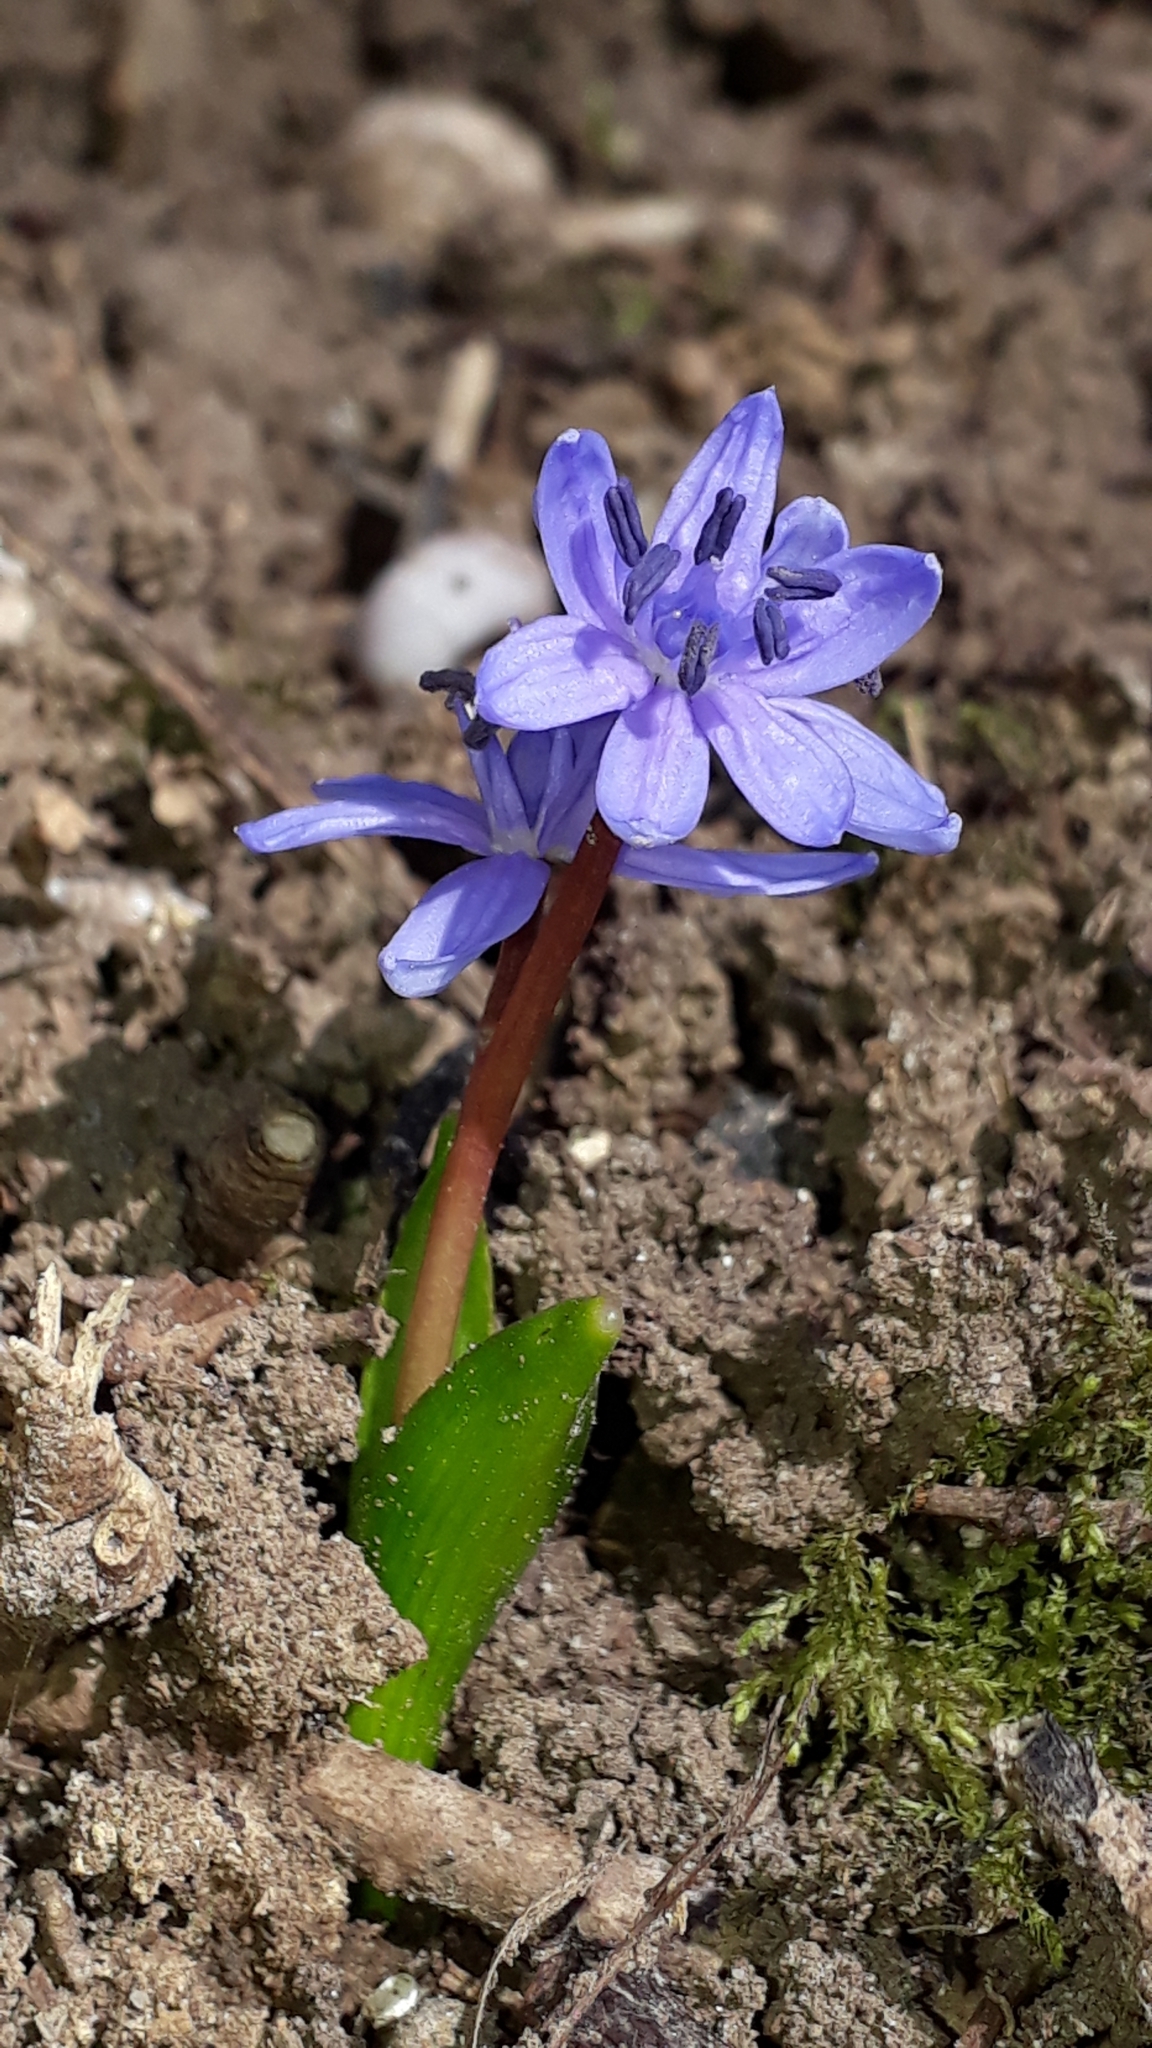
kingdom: Plantae
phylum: Tracheophyta
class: Liliopsida
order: Asparagales
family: Asparagaceae
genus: Scilla
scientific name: Scilla bifolia
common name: Alpine squill
